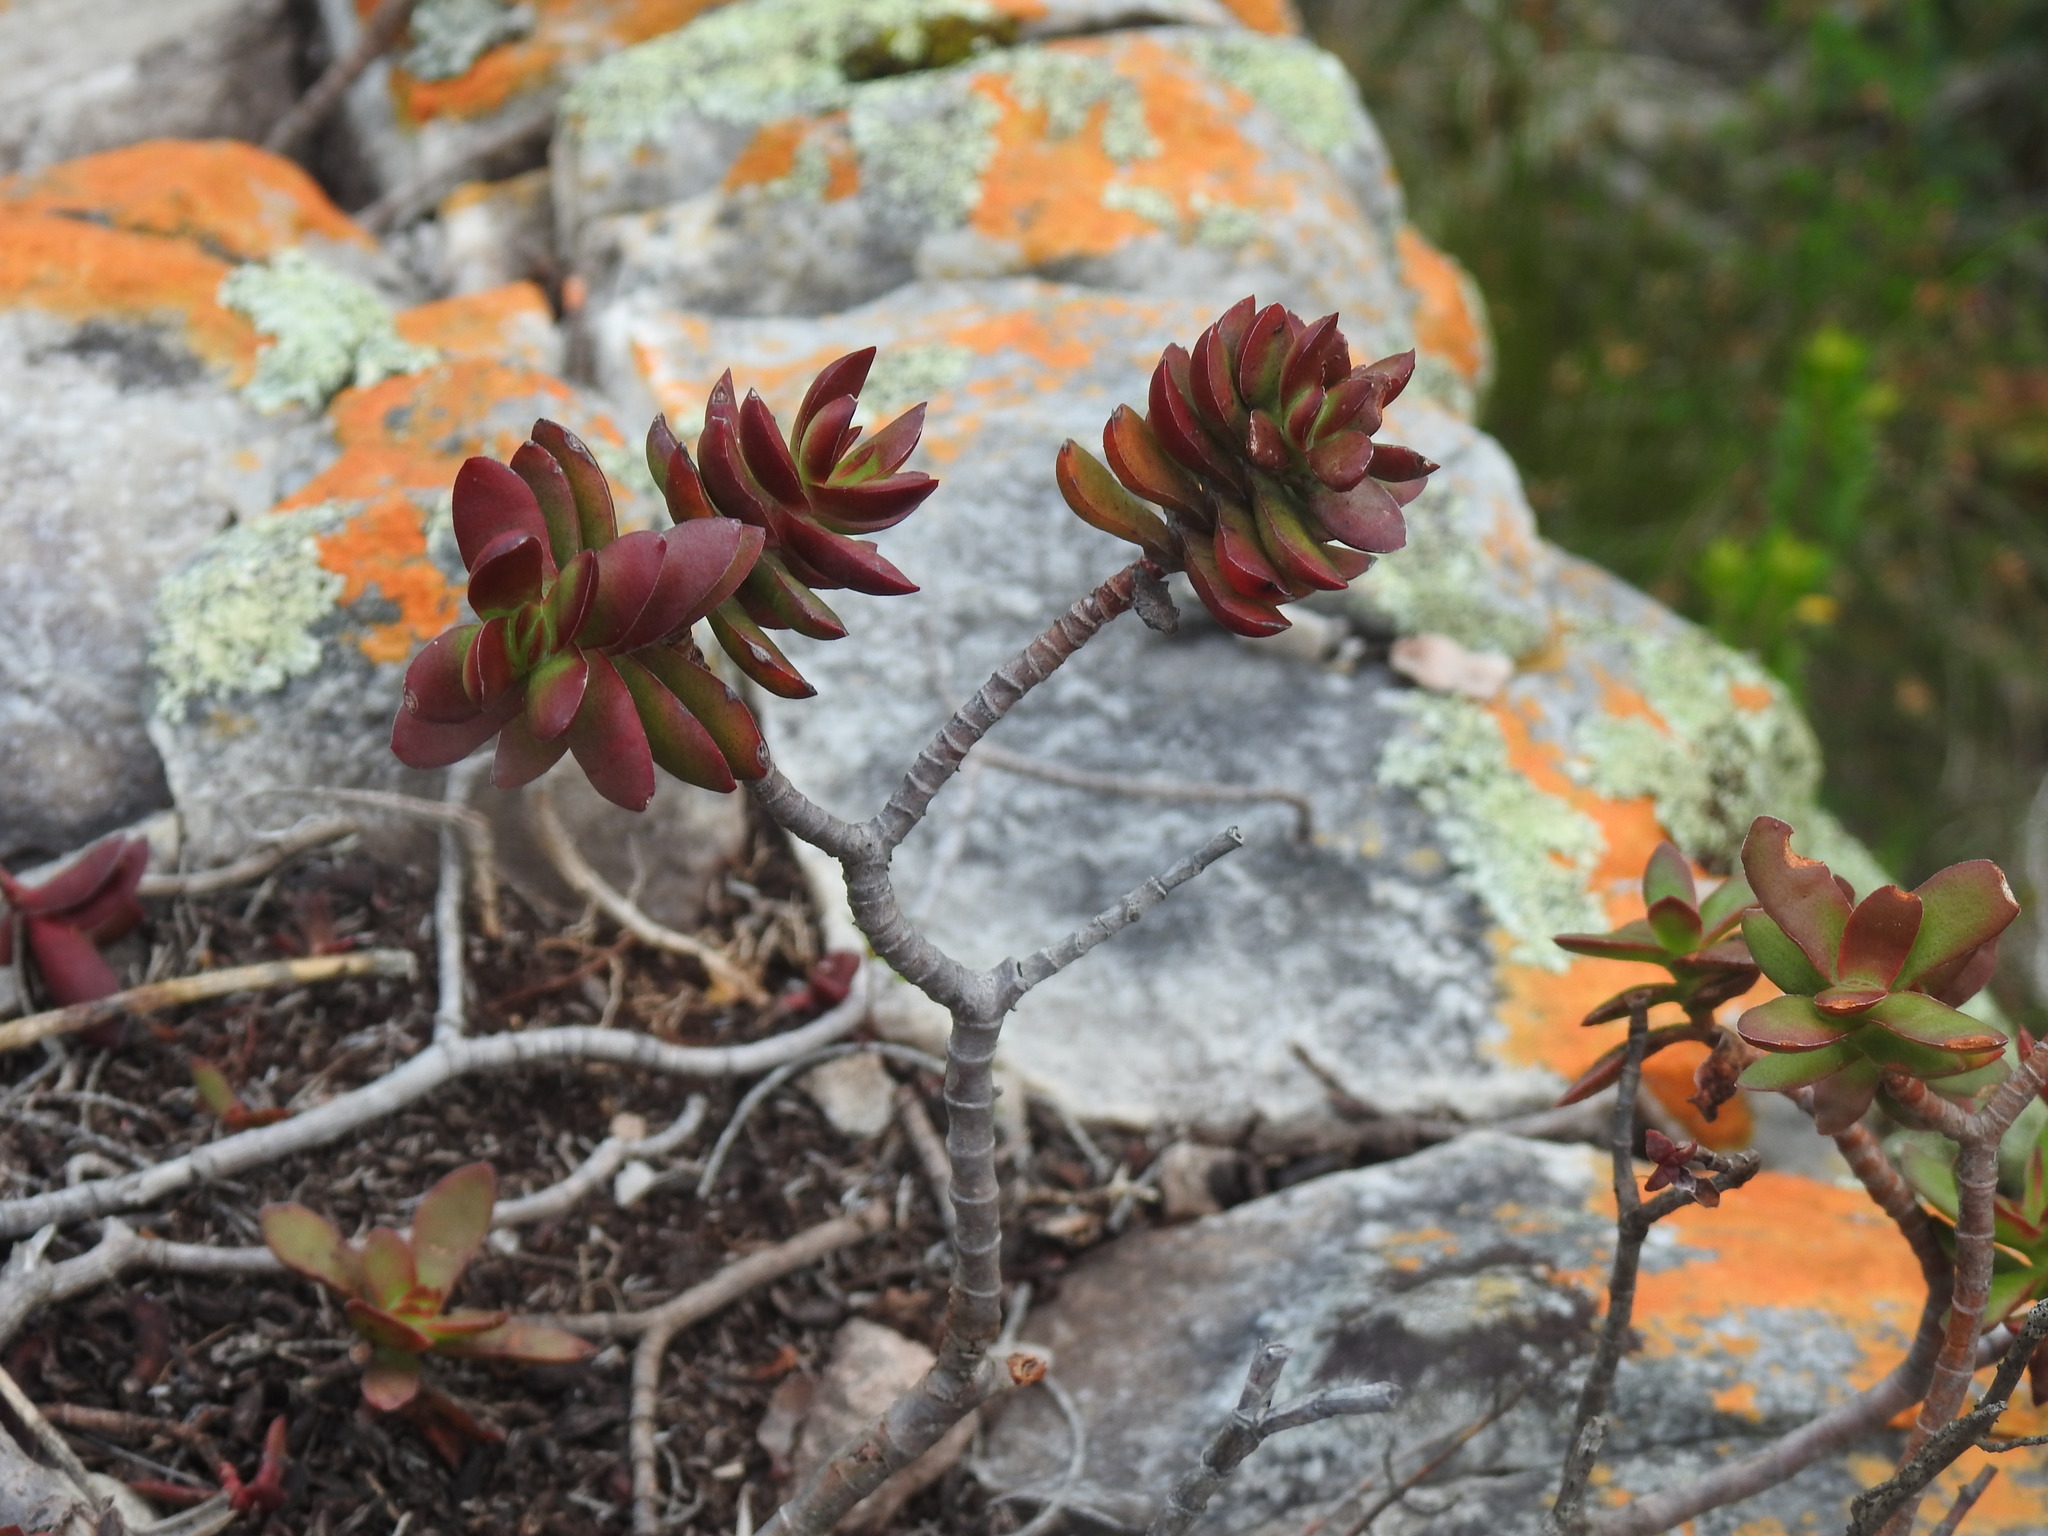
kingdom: Plantae
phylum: Tracheophyta
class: Magnoliopsida
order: Saxifragales
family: Crassulaceae
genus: Crassula
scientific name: Crassula rubricaulis
